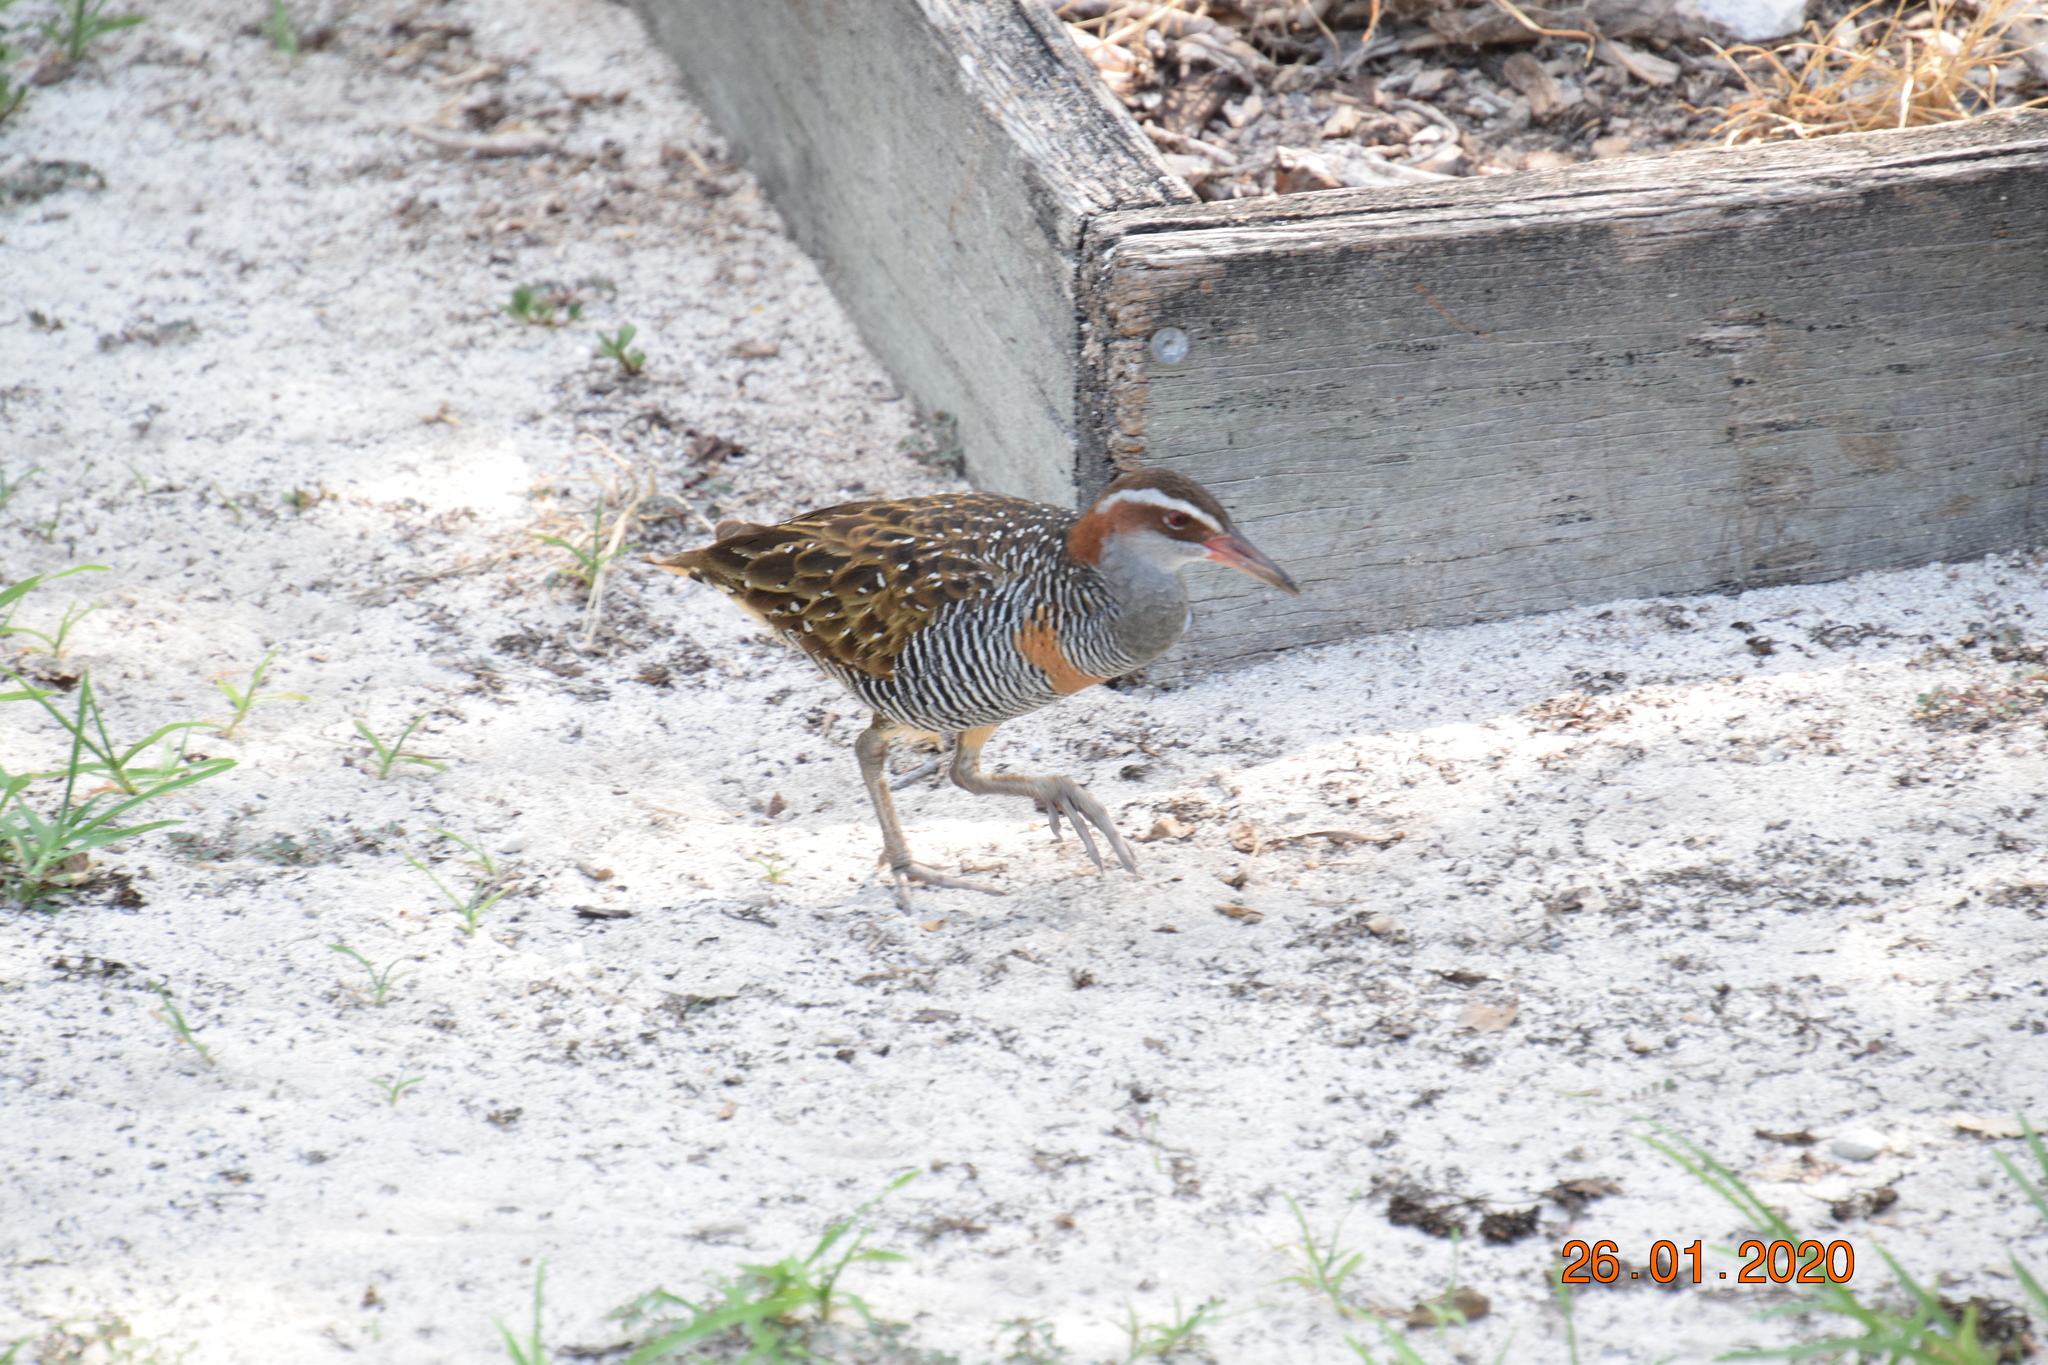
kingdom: Animalia
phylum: Chordata
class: Aves
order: Gruiformes
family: Rallidae
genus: Gallirallus
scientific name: Gallirallus philippensis
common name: Buff-banded rail
